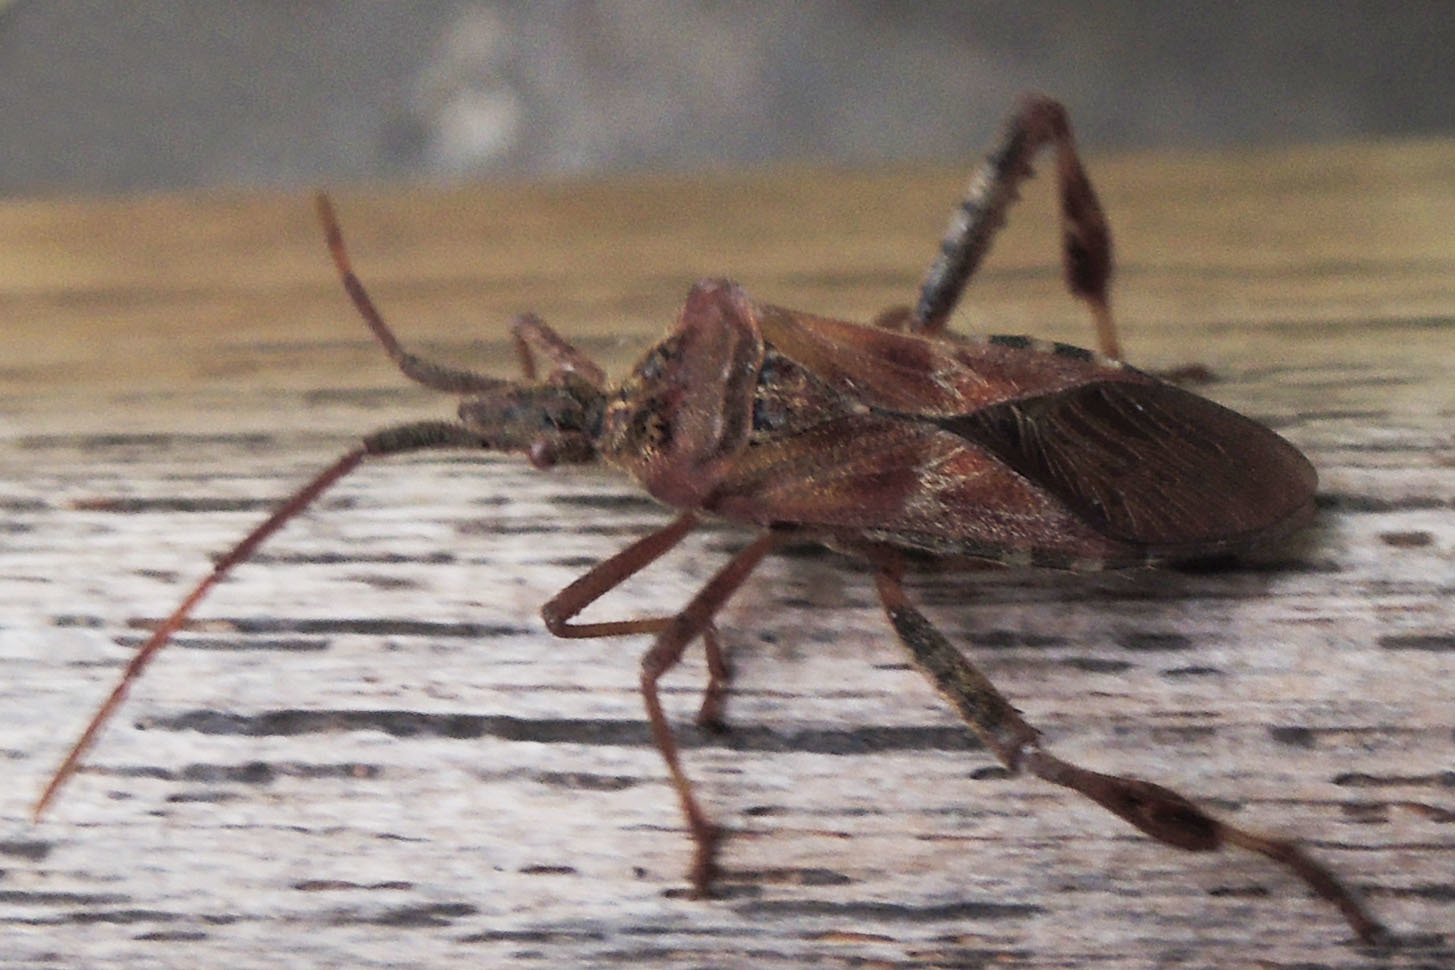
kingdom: Animalia
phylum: Arthropoda
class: Insecta
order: Hemiptera
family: Coreidae
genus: Leptoglossus
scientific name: Leptoglossus occidentalis
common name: Western conifer-seed bug
